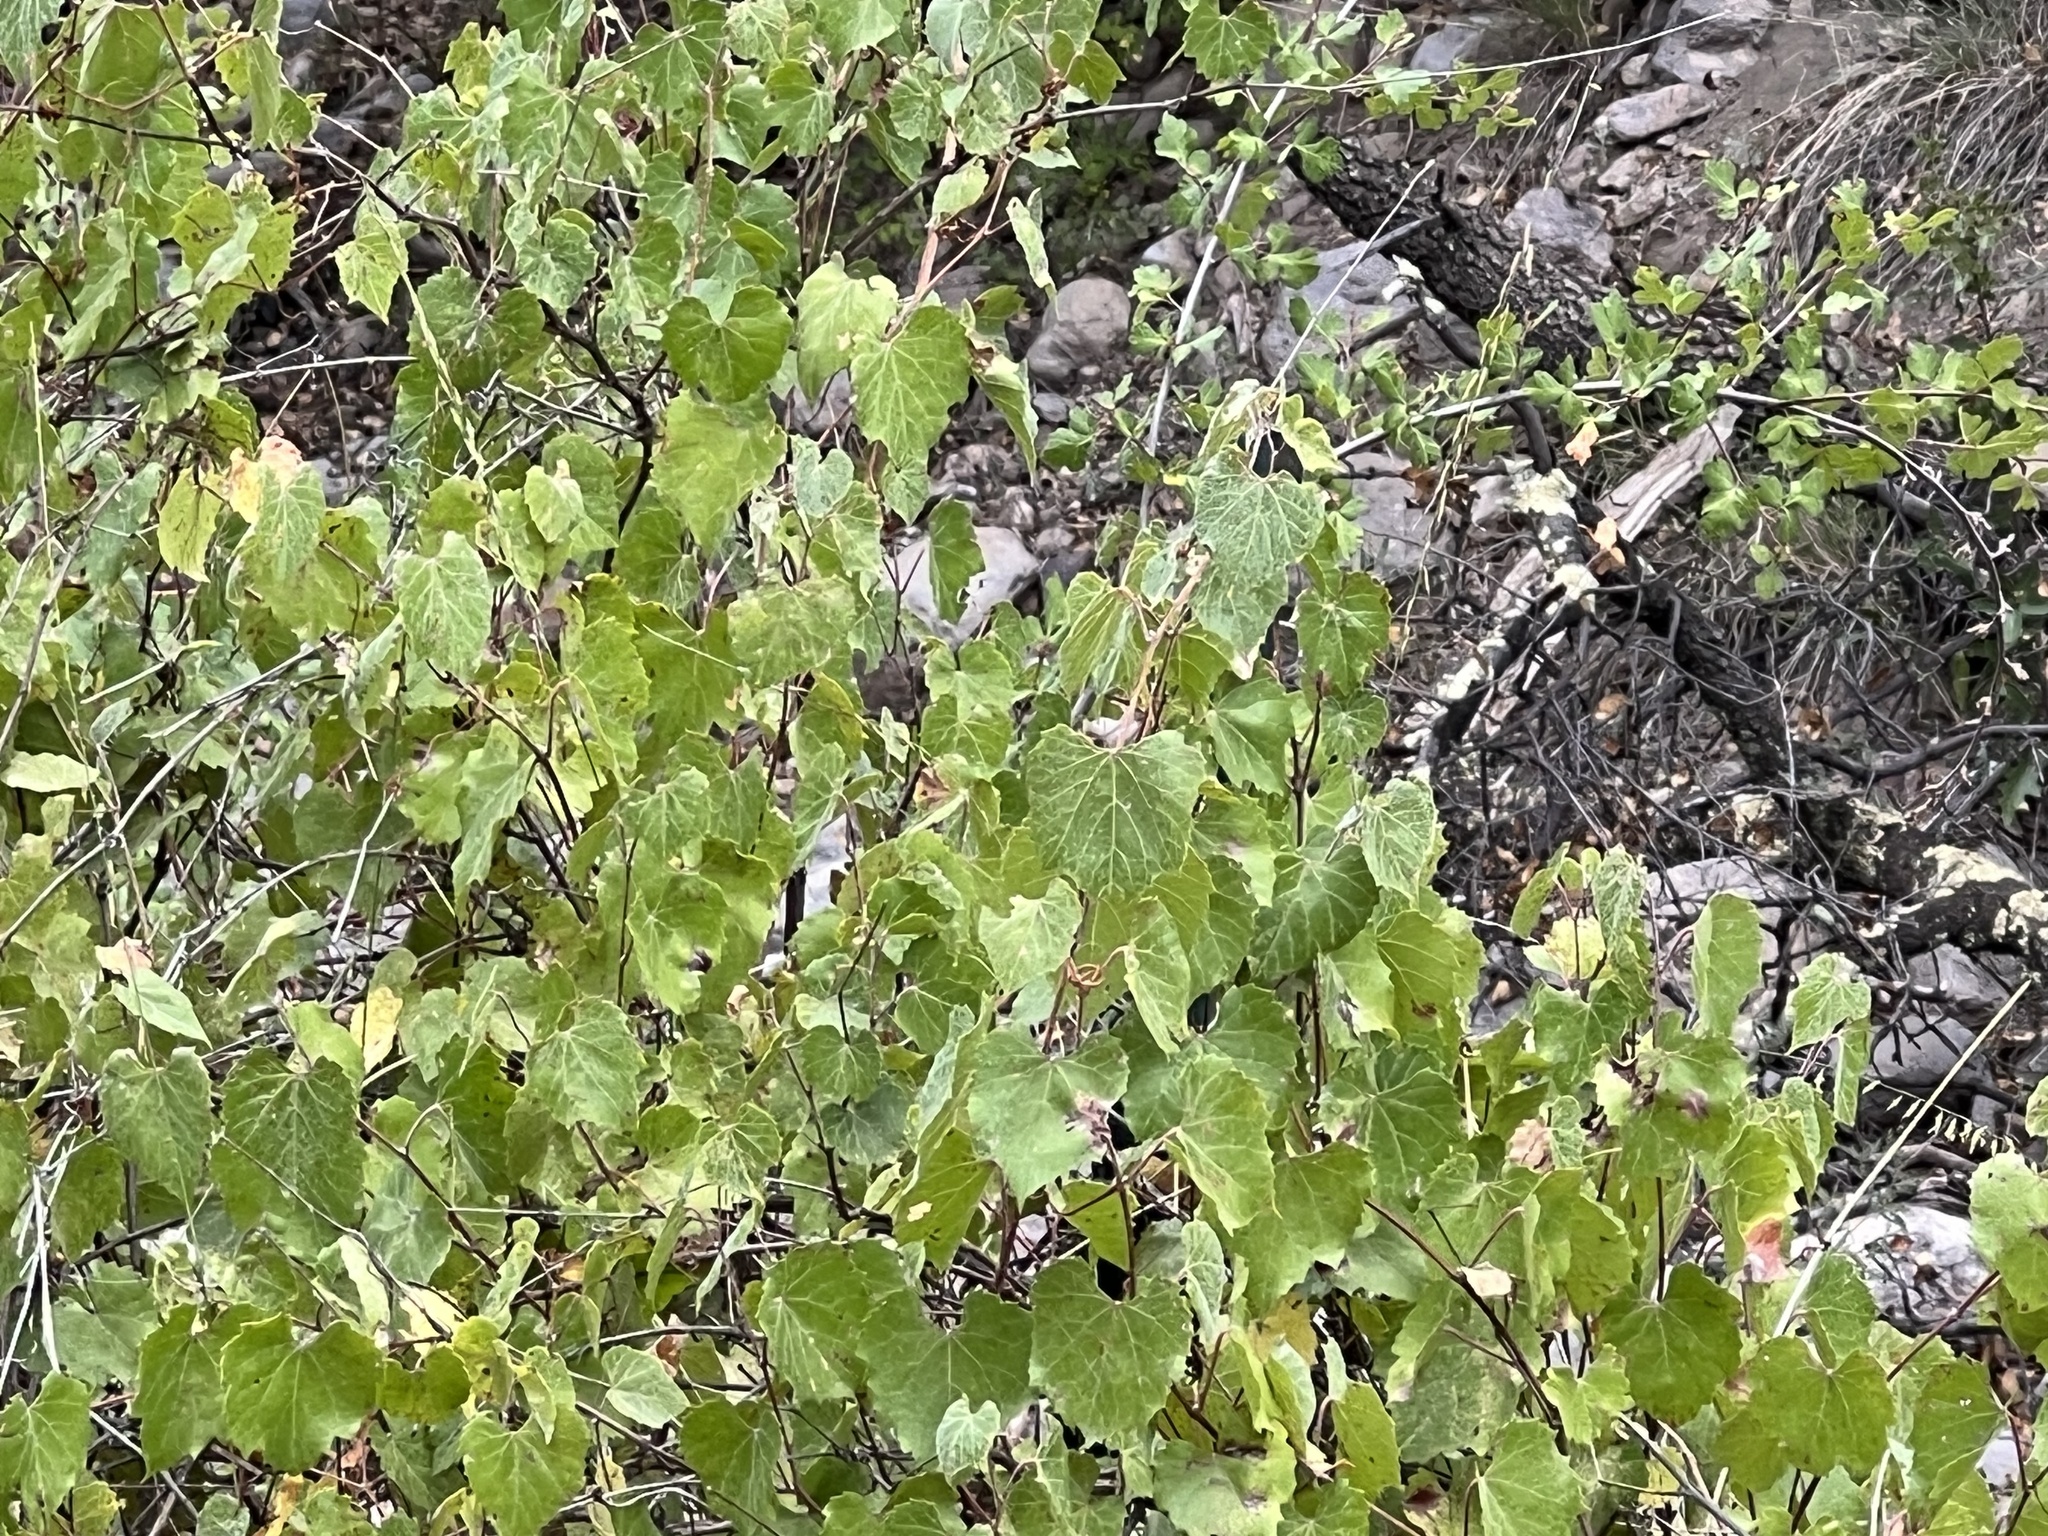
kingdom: Plantae
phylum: Tracheophyta
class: Magnoliopsida
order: Vitales
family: Vitaceae
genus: Vitis
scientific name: Vitis arizonica
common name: Canyon grape
